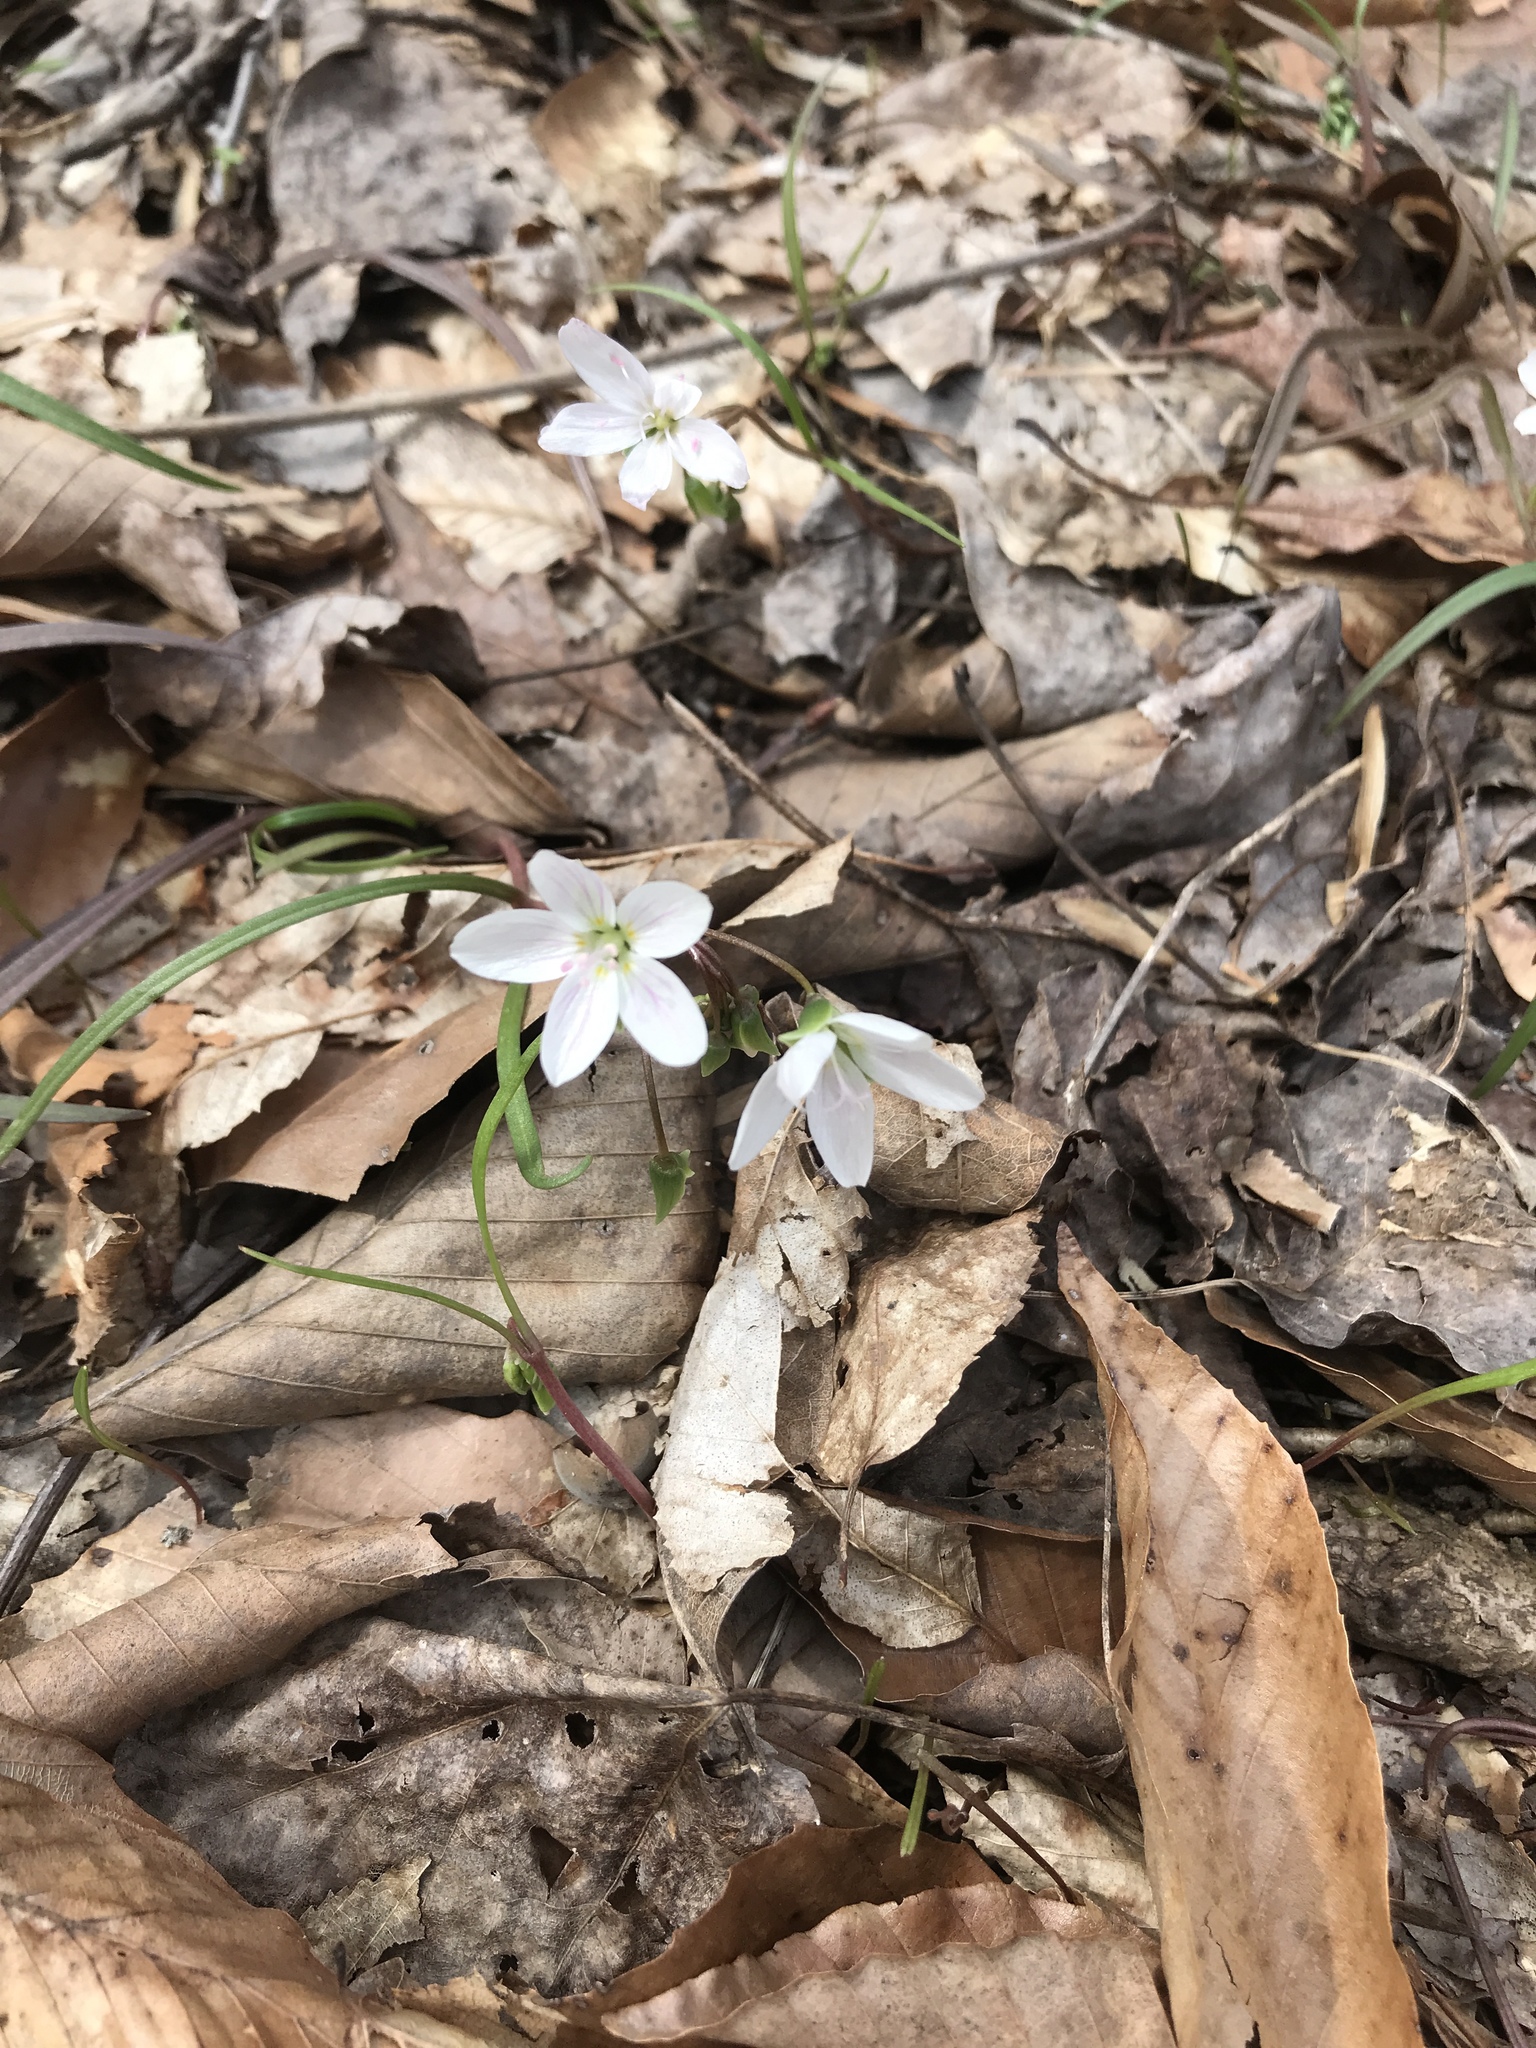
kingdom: Plantae
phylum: Tracheophyta
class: Magnoliopsida
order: Caryophyllales
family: Montiaceae
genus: Claytonia
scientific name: Claytonia virginica
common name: Virginia springbeauty
